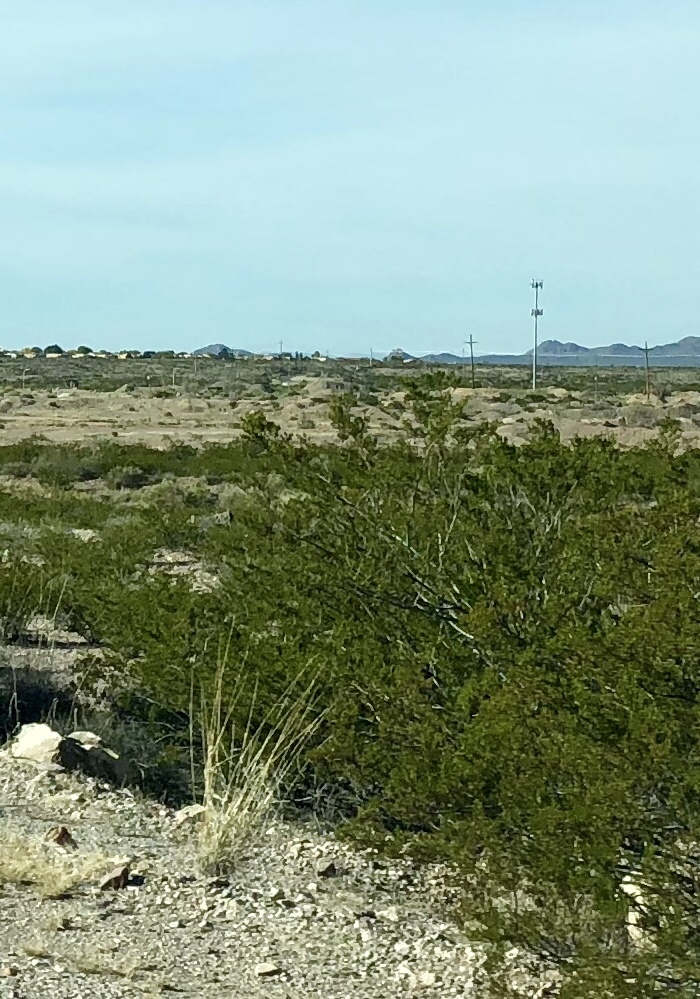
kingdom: Plantae
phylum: Tracheophyta
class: Magnoliopsida
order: Zygophyllales
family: Zygophyllaceae
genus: Larrea
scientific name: Larrea tridentata
